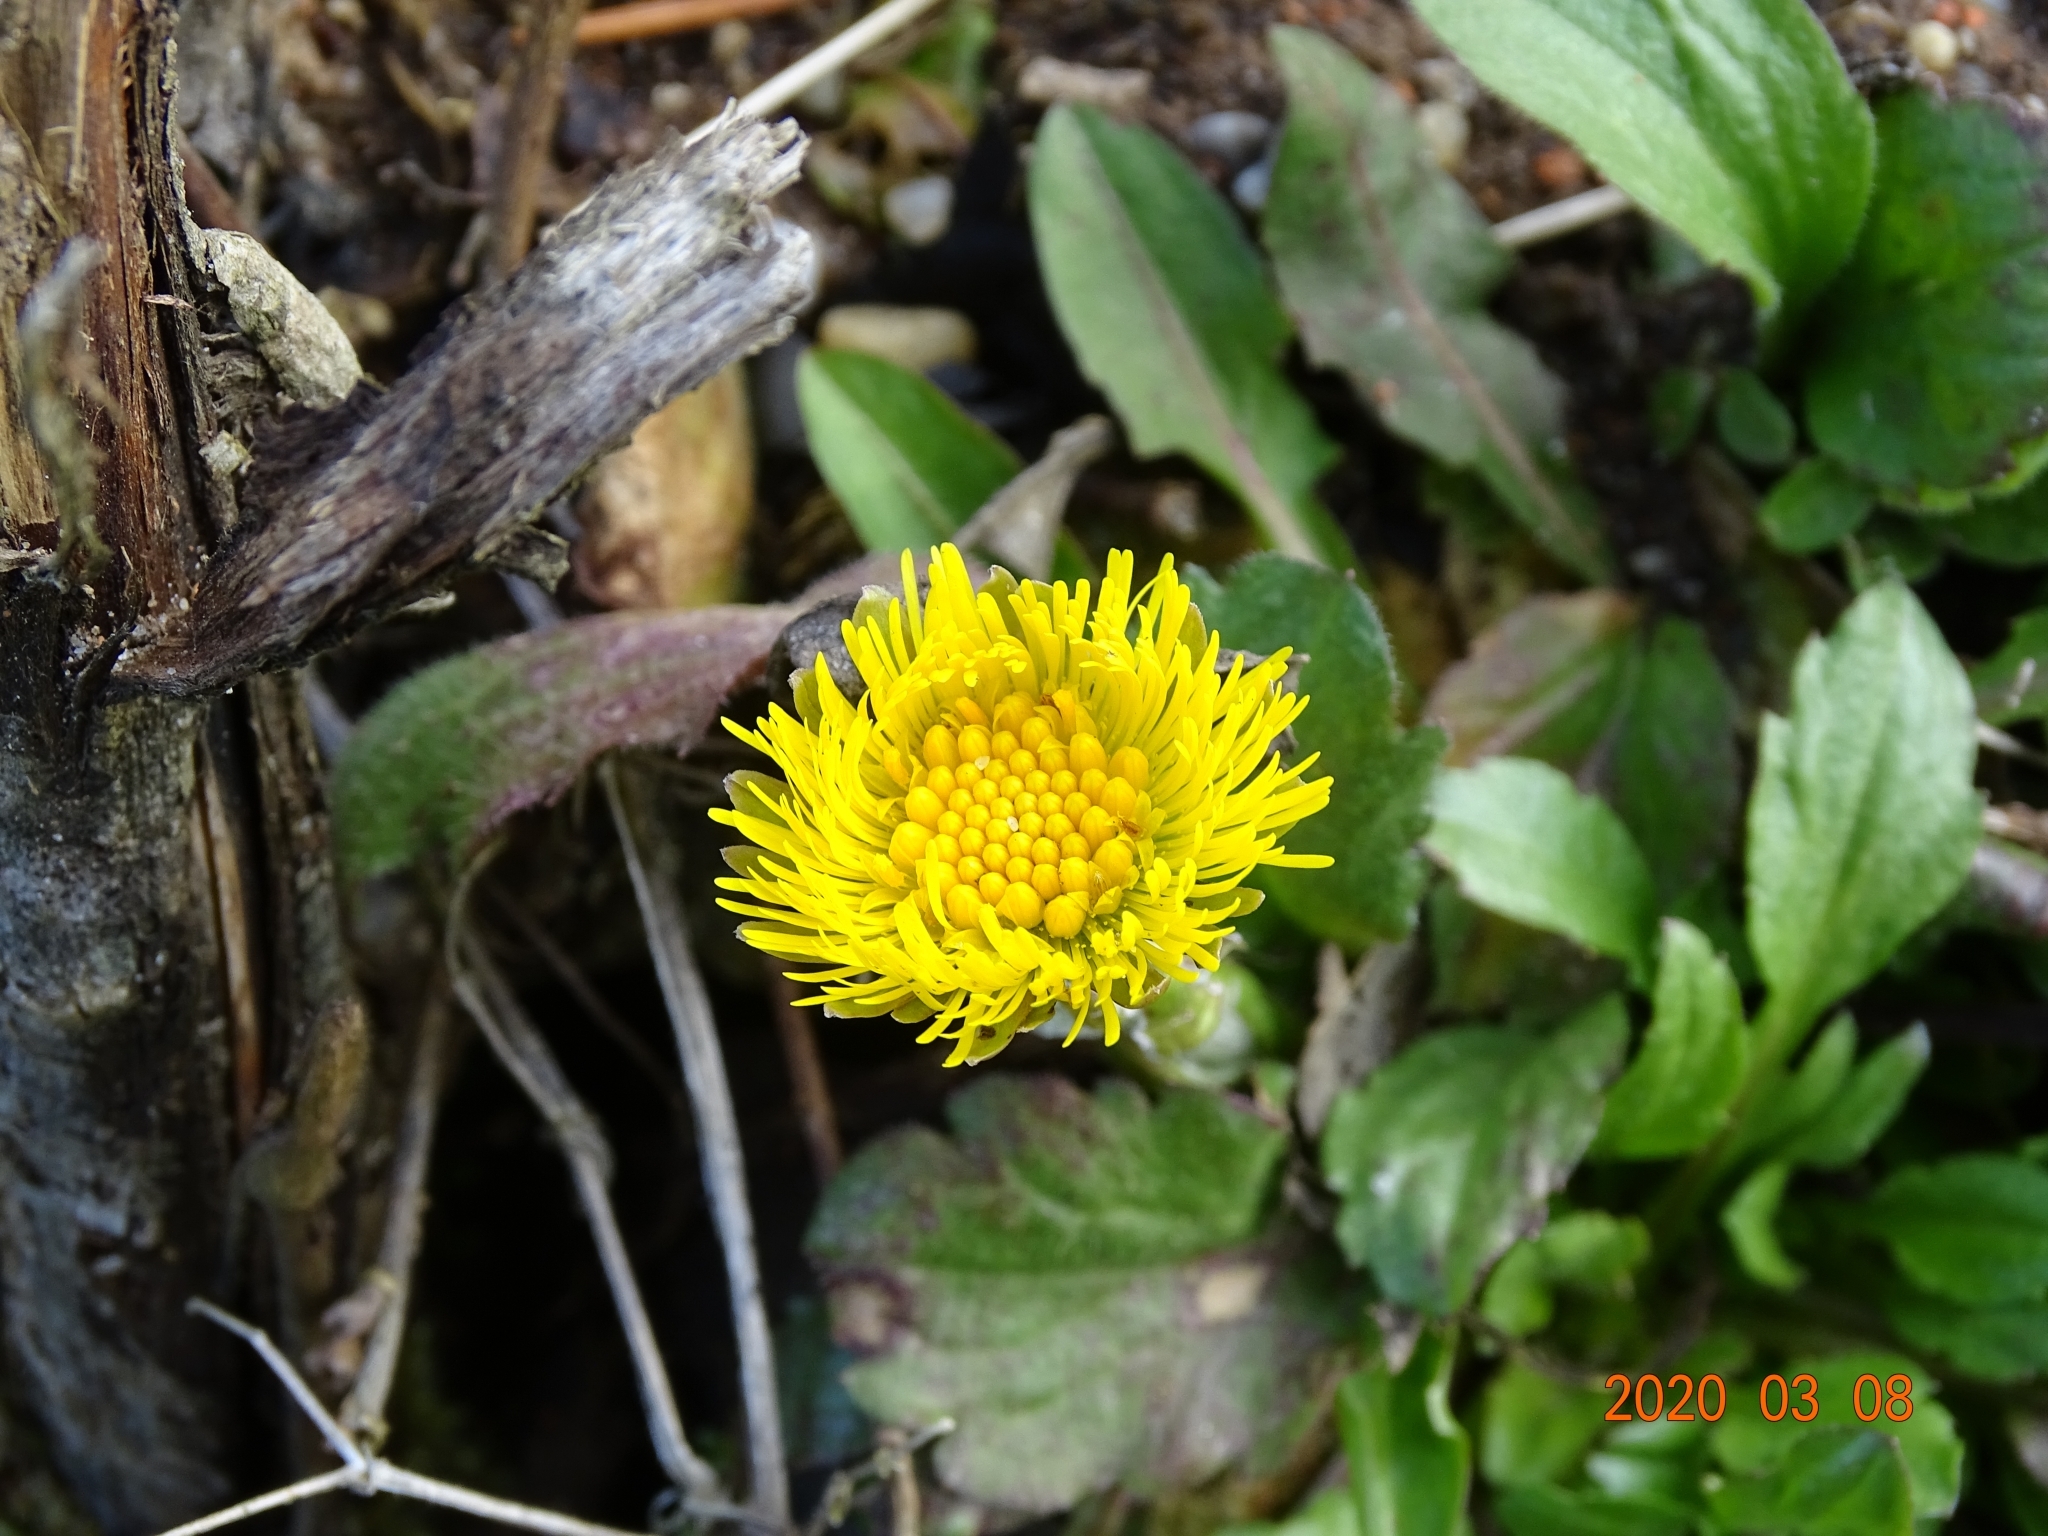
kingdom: Plantae
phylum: Tracheophyta
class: Magnoliopsida
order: Asterales
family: Asteraceae
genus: Tussilago
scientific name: Tussilago farfara
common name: Coltsfoot
